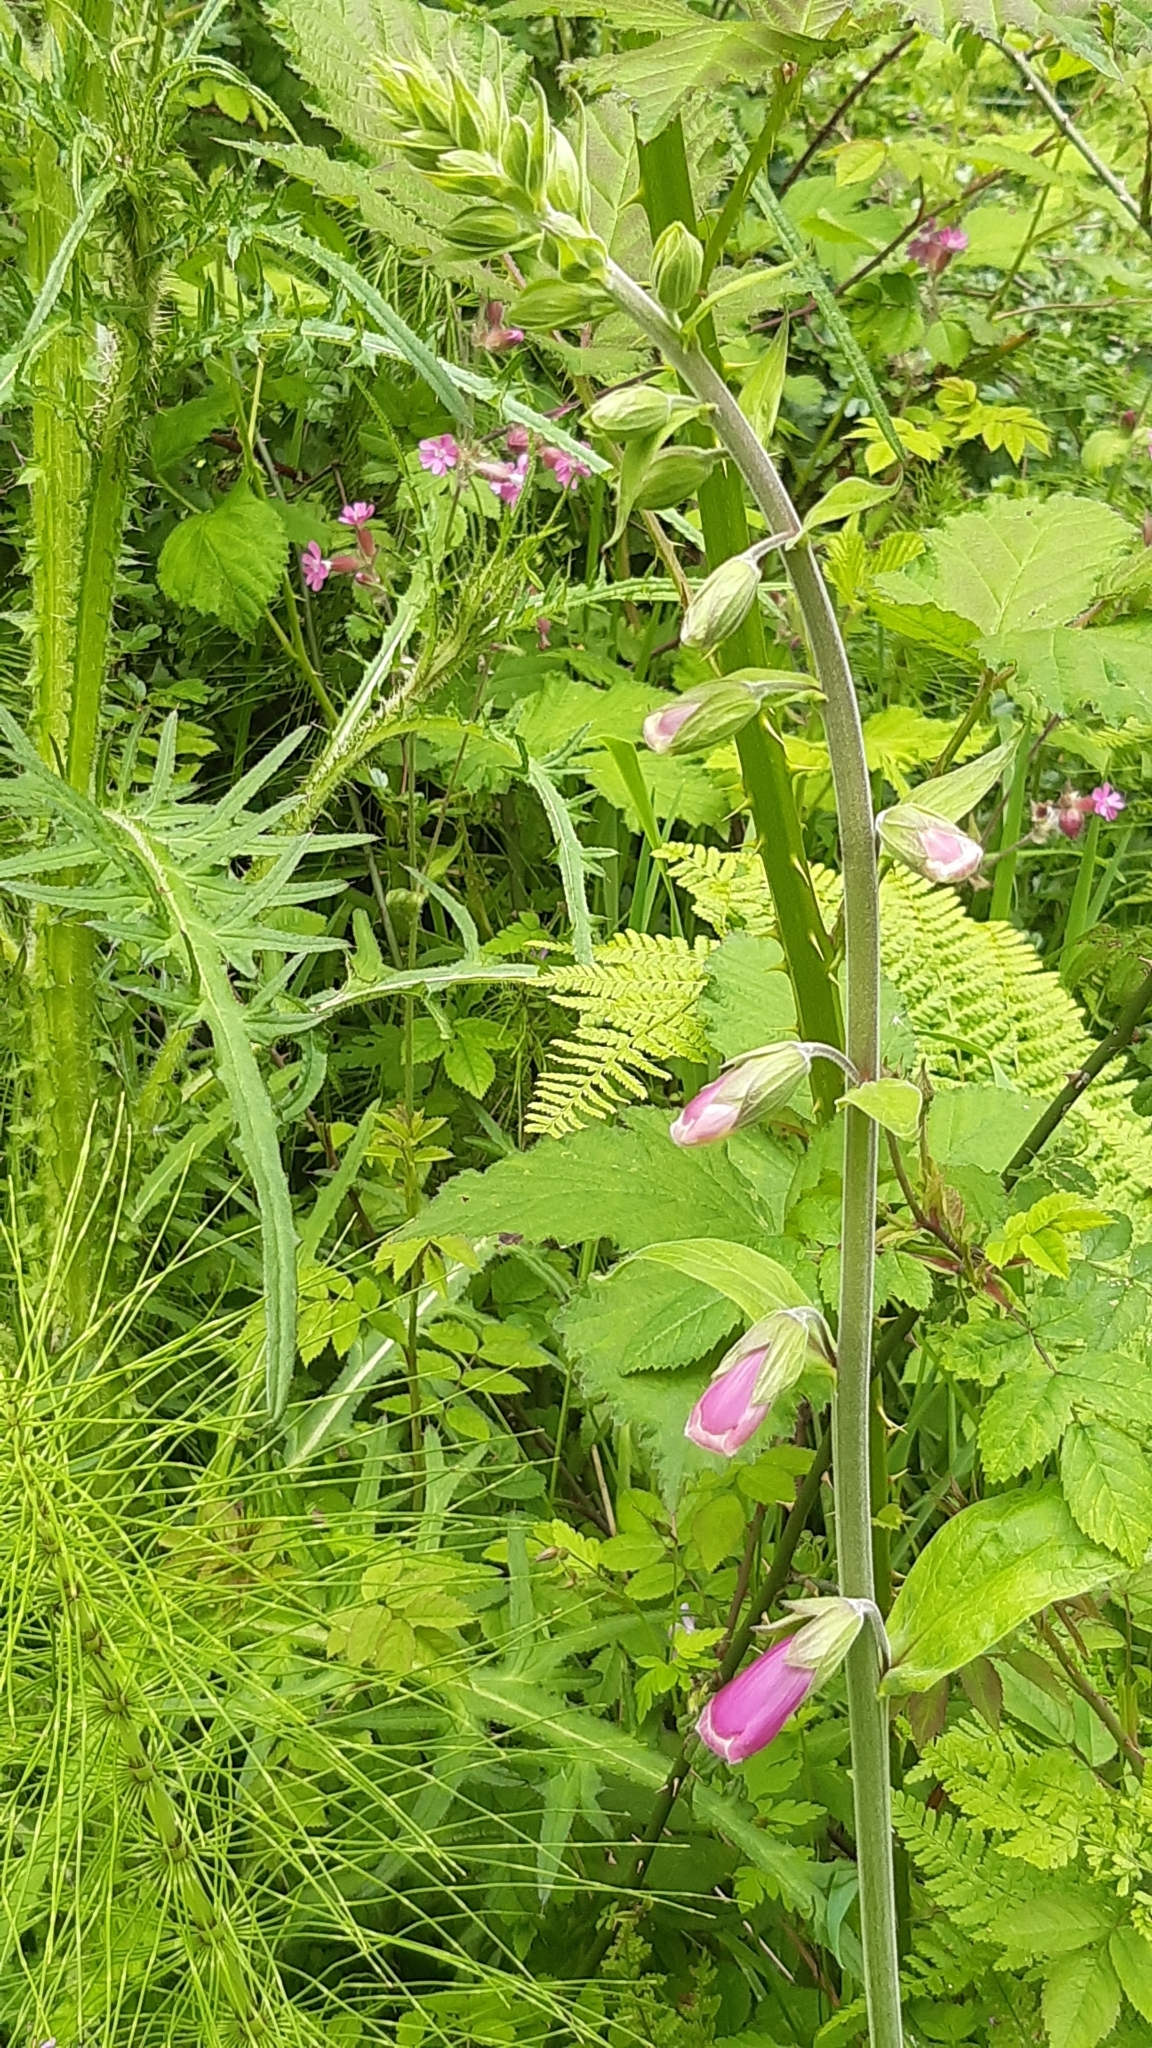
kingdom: Plantae
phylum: Tracheophyta
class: Magnoliopsida
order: Lamiales
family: Plantaginaceae
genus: Digitalis
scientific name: Digitalis purpurea
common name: Foxglove
